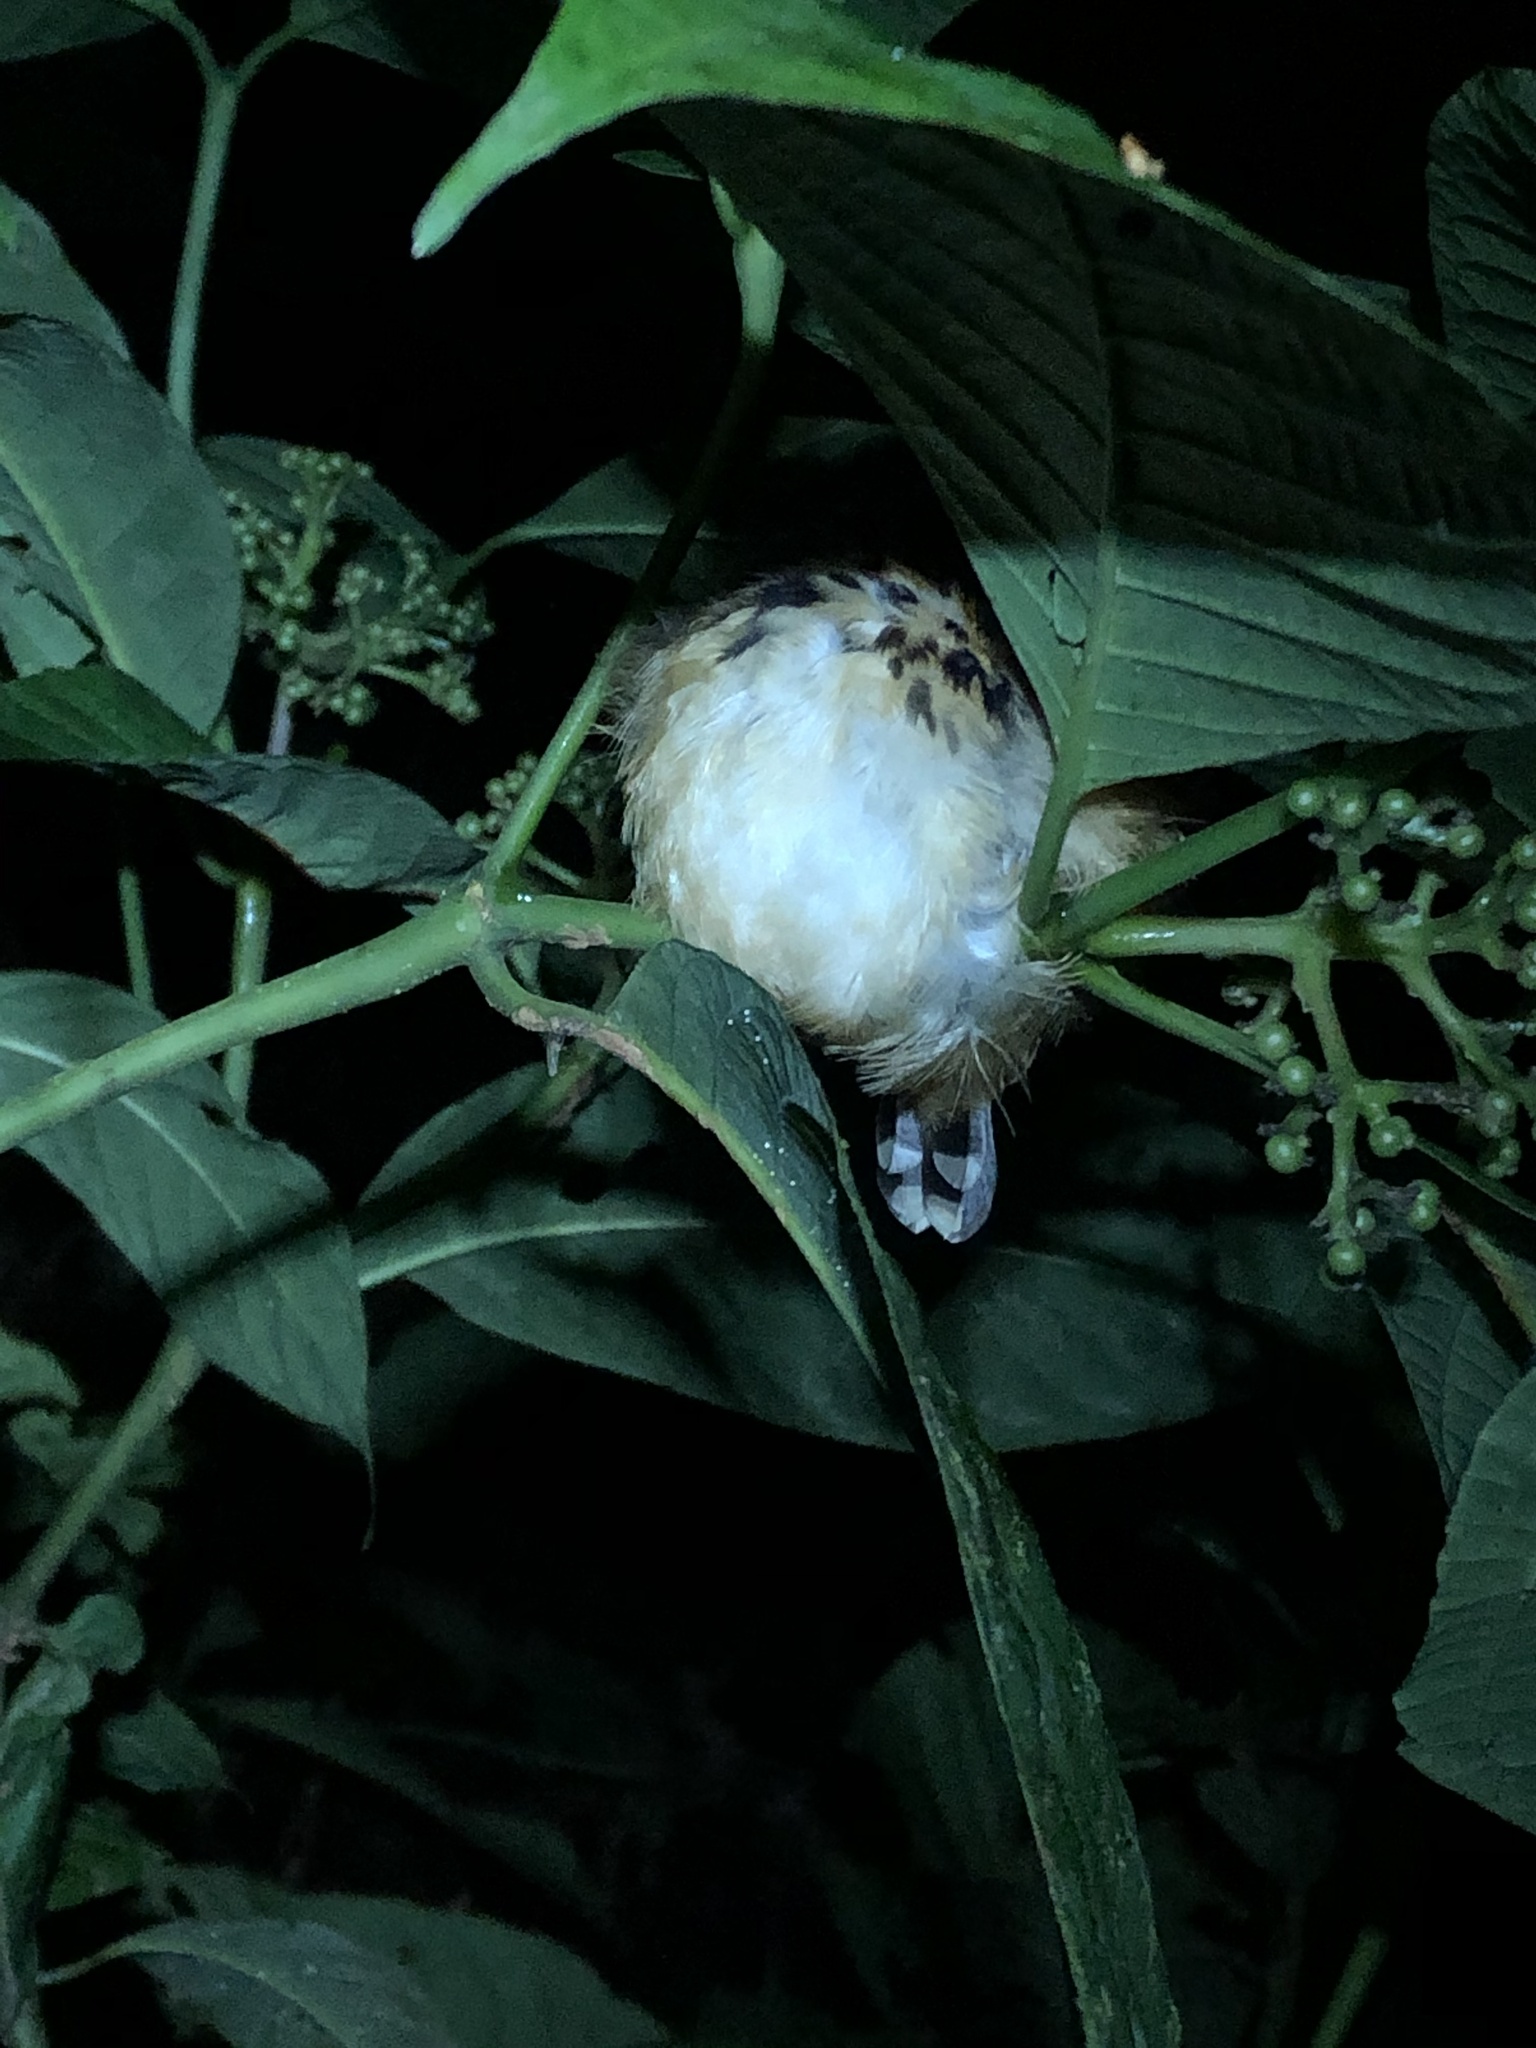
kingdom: Animalia
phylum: Chordata
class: Aves
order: Passeriformes
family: Thamnophilidae
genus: Hylophylax
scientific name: Hylophylax naevius
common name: Spot-backed antbird
